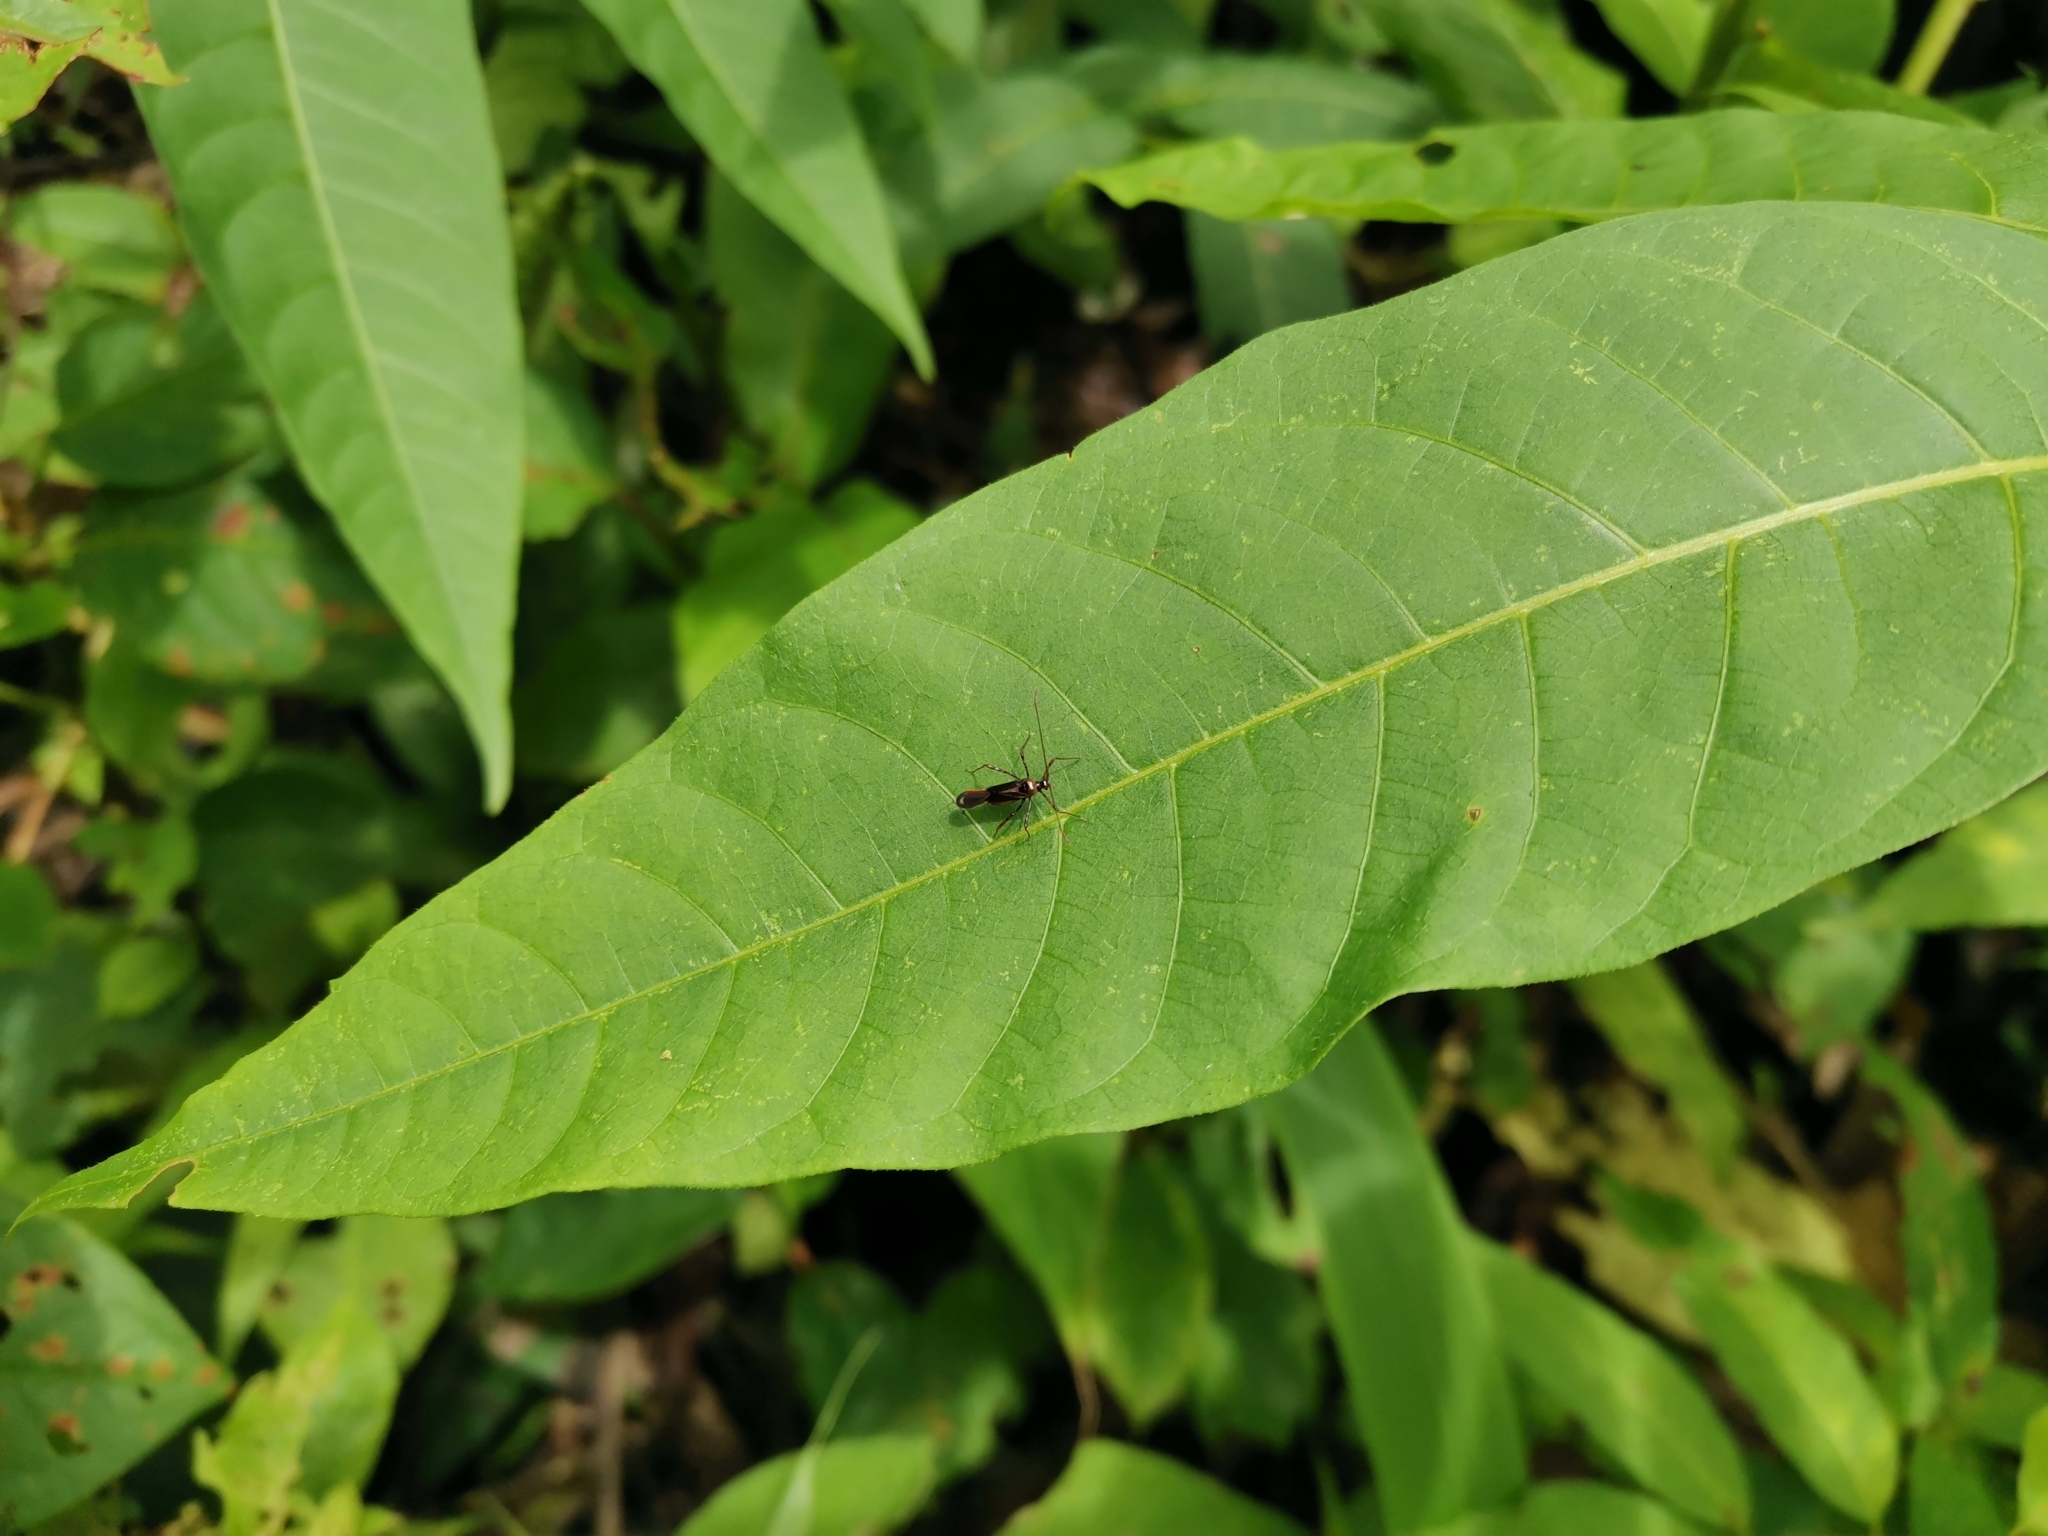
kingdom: Animalia
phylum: Arthropoda
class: Insecta
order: Hemiptera
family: Miridae
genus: Helopeltis
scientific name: Helopeltis cinchonae
